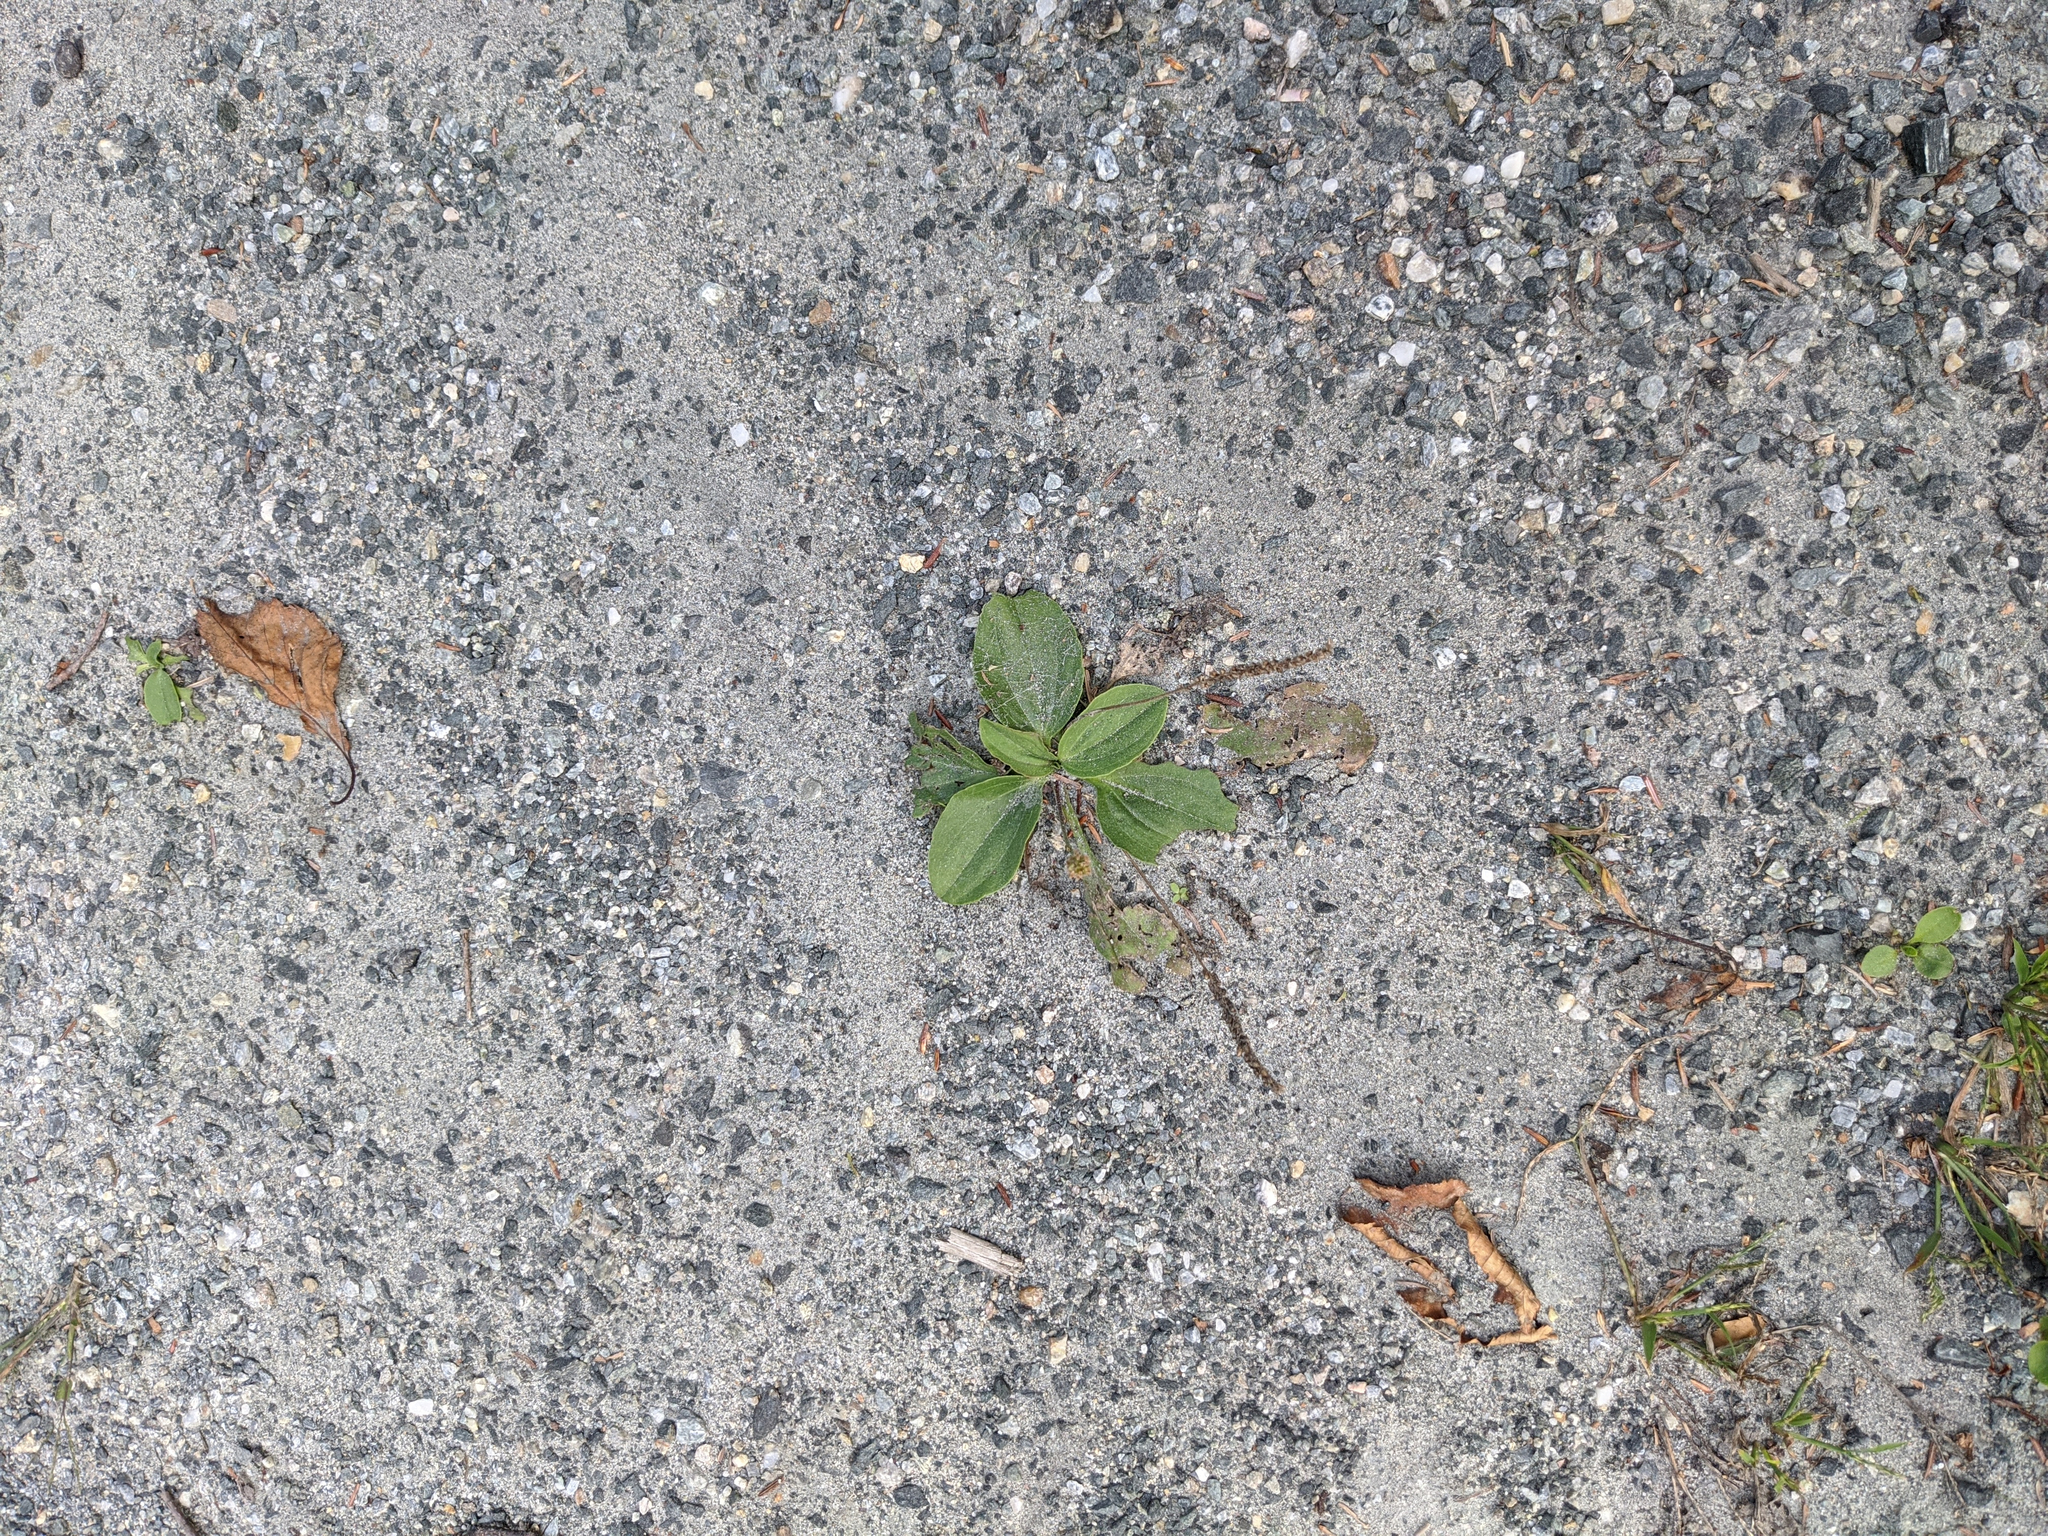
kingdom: Plantae
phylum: Tracheophyta
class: Magnoliopsida
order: Lamiales
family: Plantaginaceae
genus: Plantago
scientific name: Plantago major
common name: Common plantain
